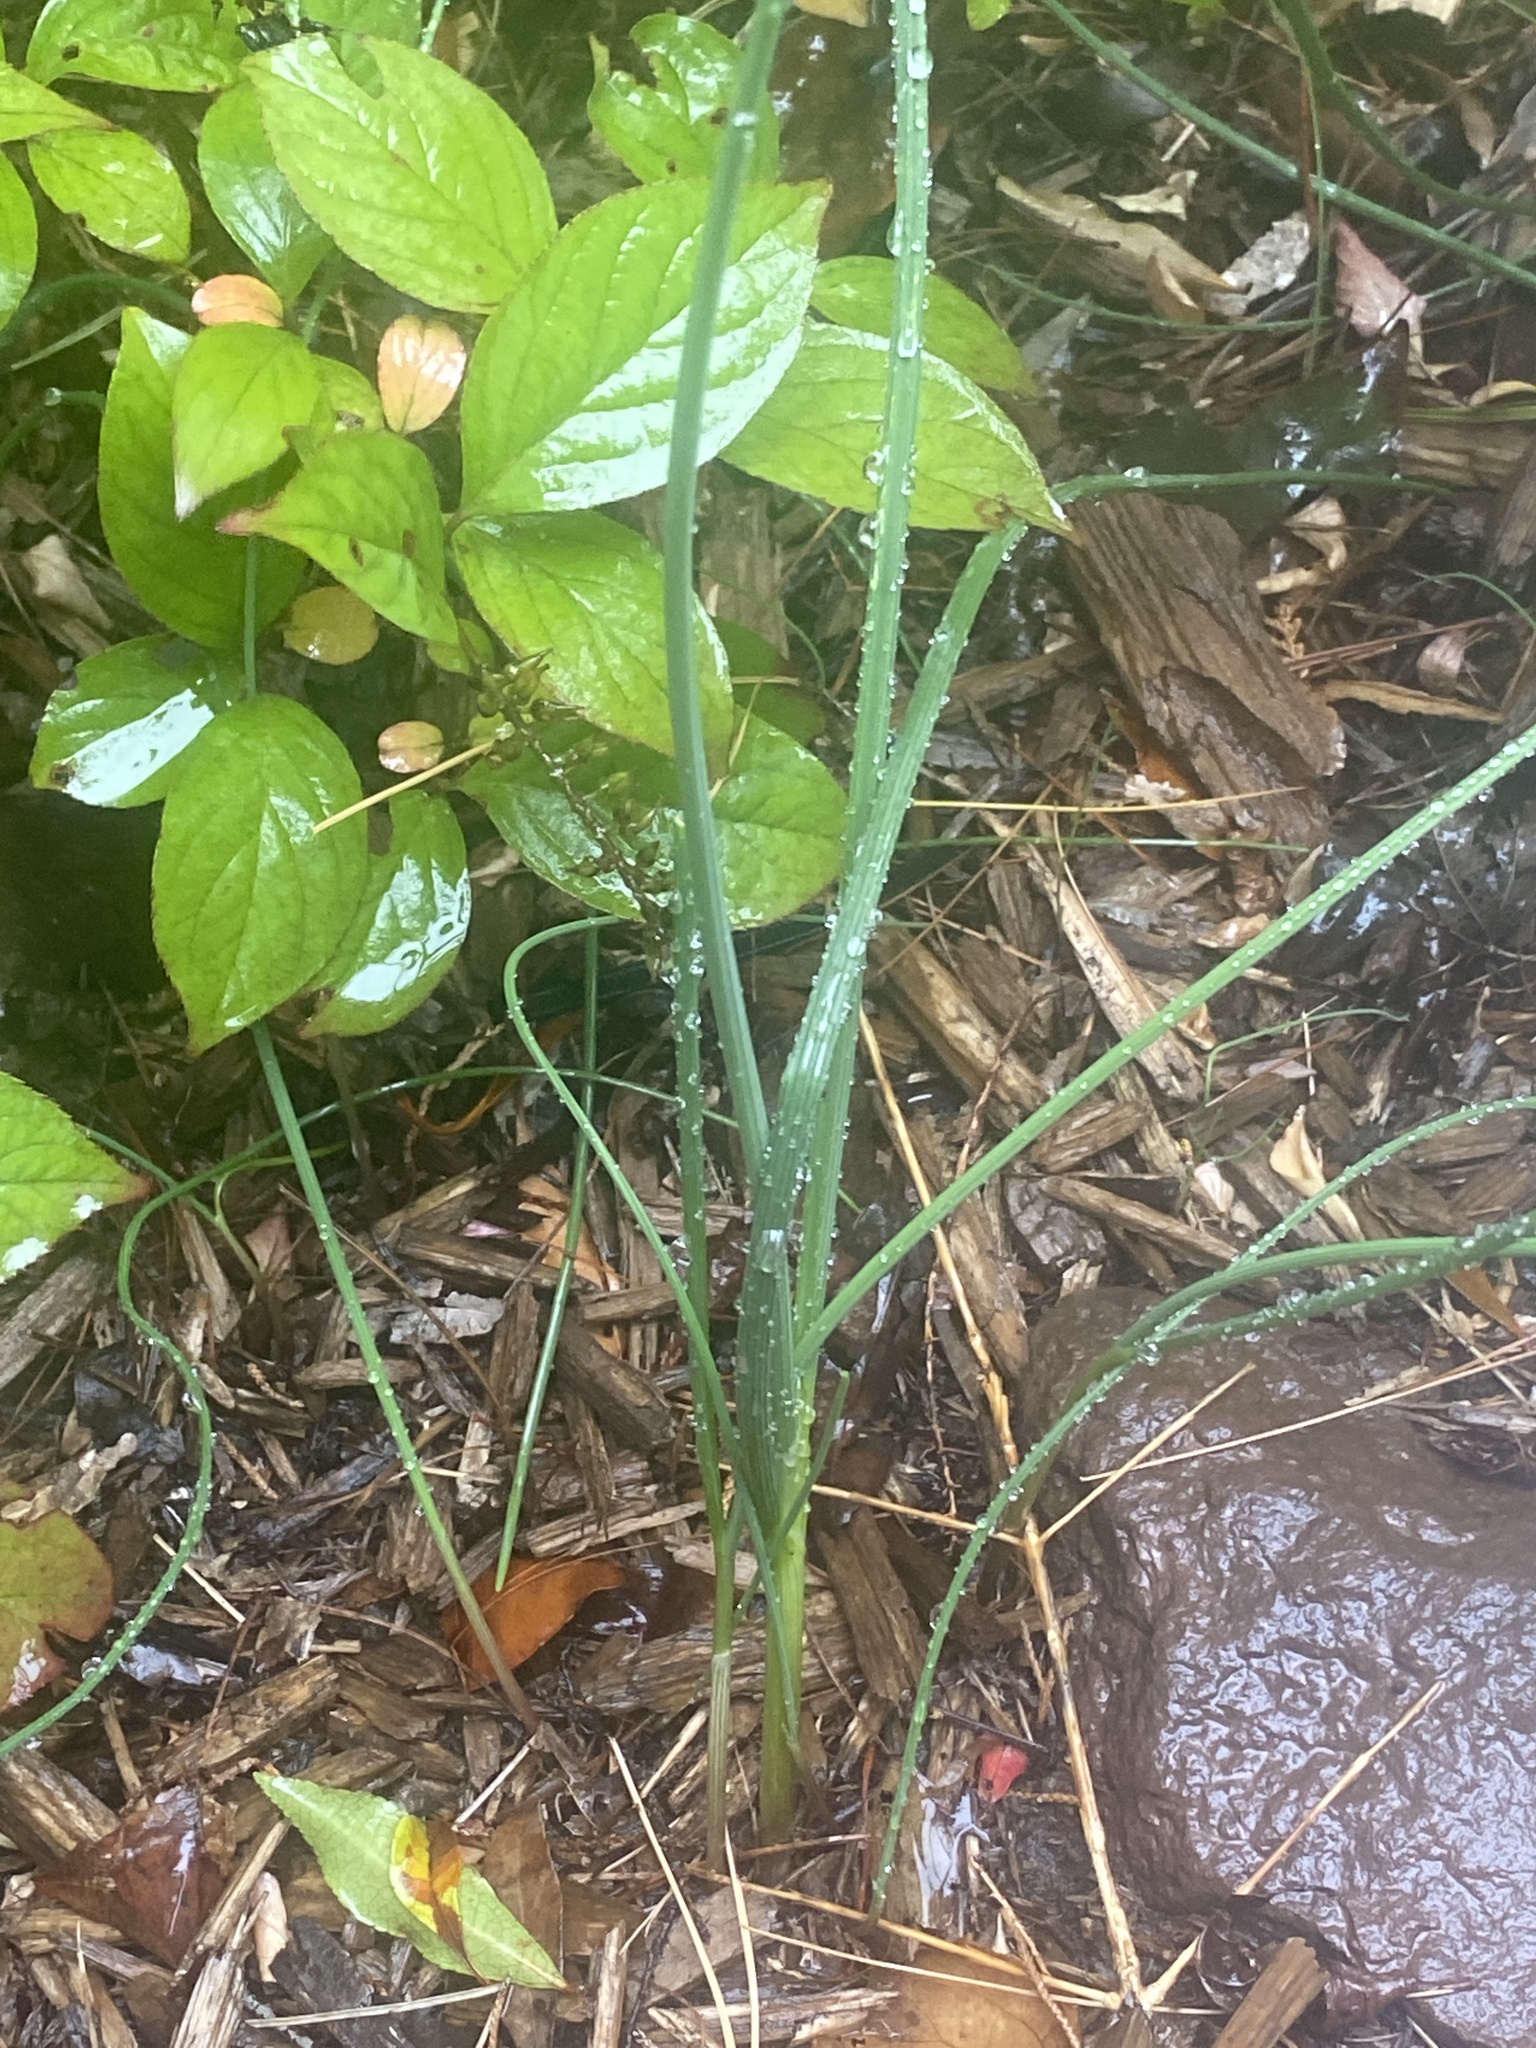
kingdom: Plantae
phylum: Tracheophyta
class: Liliopsida
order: Asparagales
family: Amaryllidaceae
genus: Allium
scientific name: Allium vineale
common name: Crow garlic
